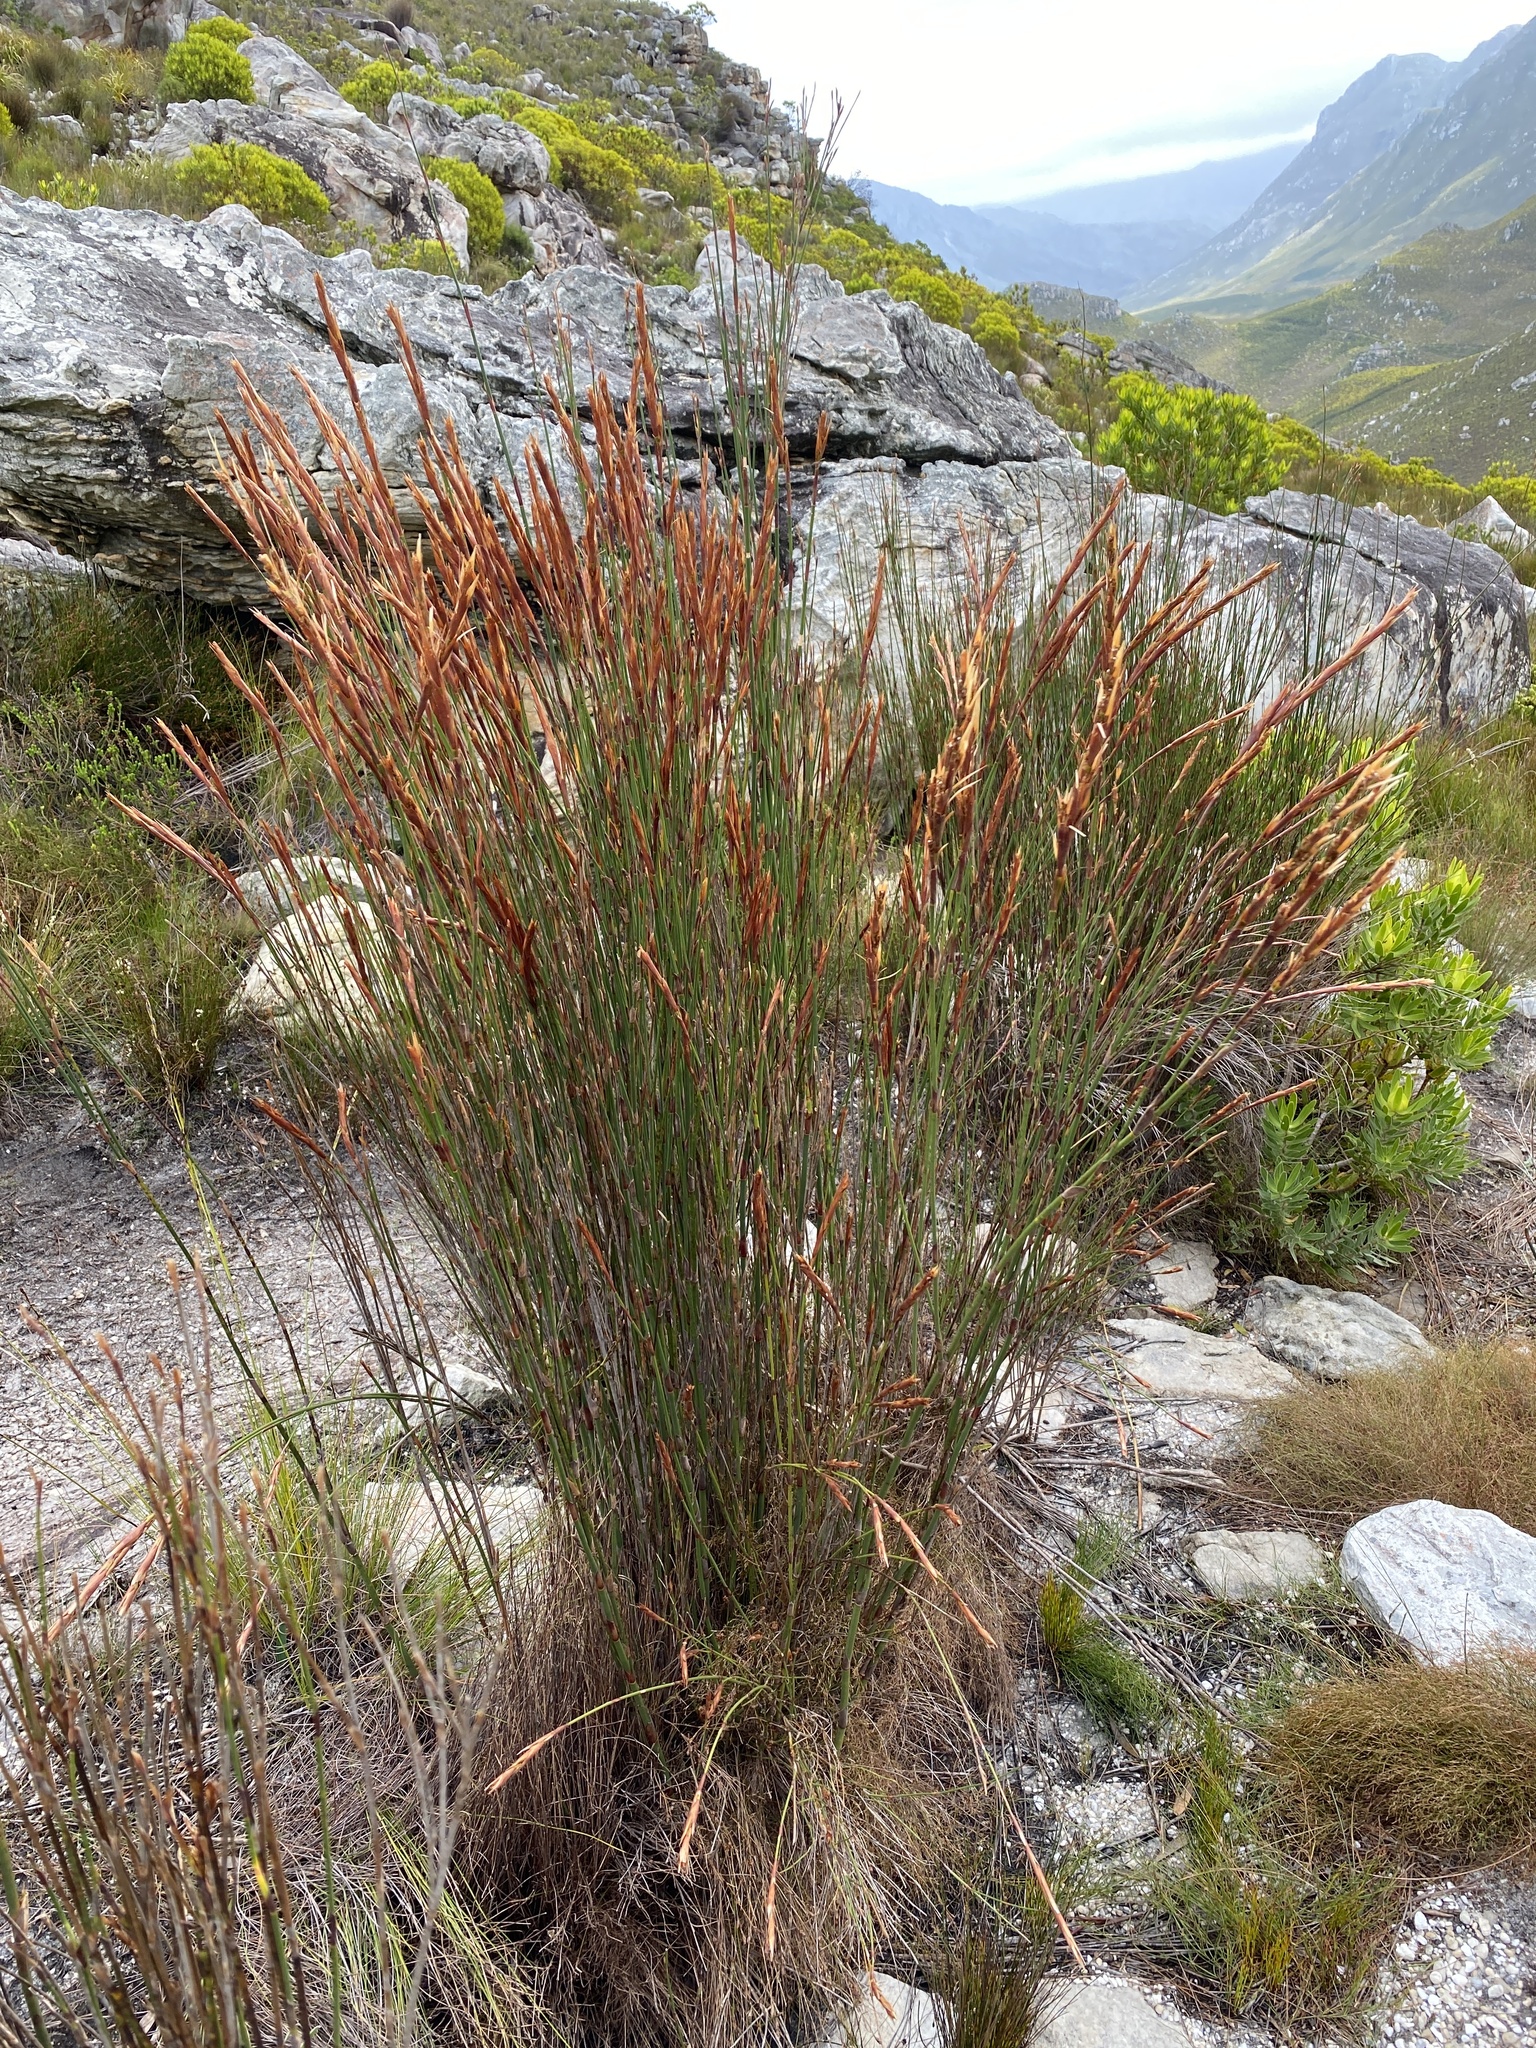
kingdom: Plantae
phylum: Tracheophyta
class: Liliopsida
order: Poales
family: Restionaceae
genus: Restio
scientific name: Restio dispar
